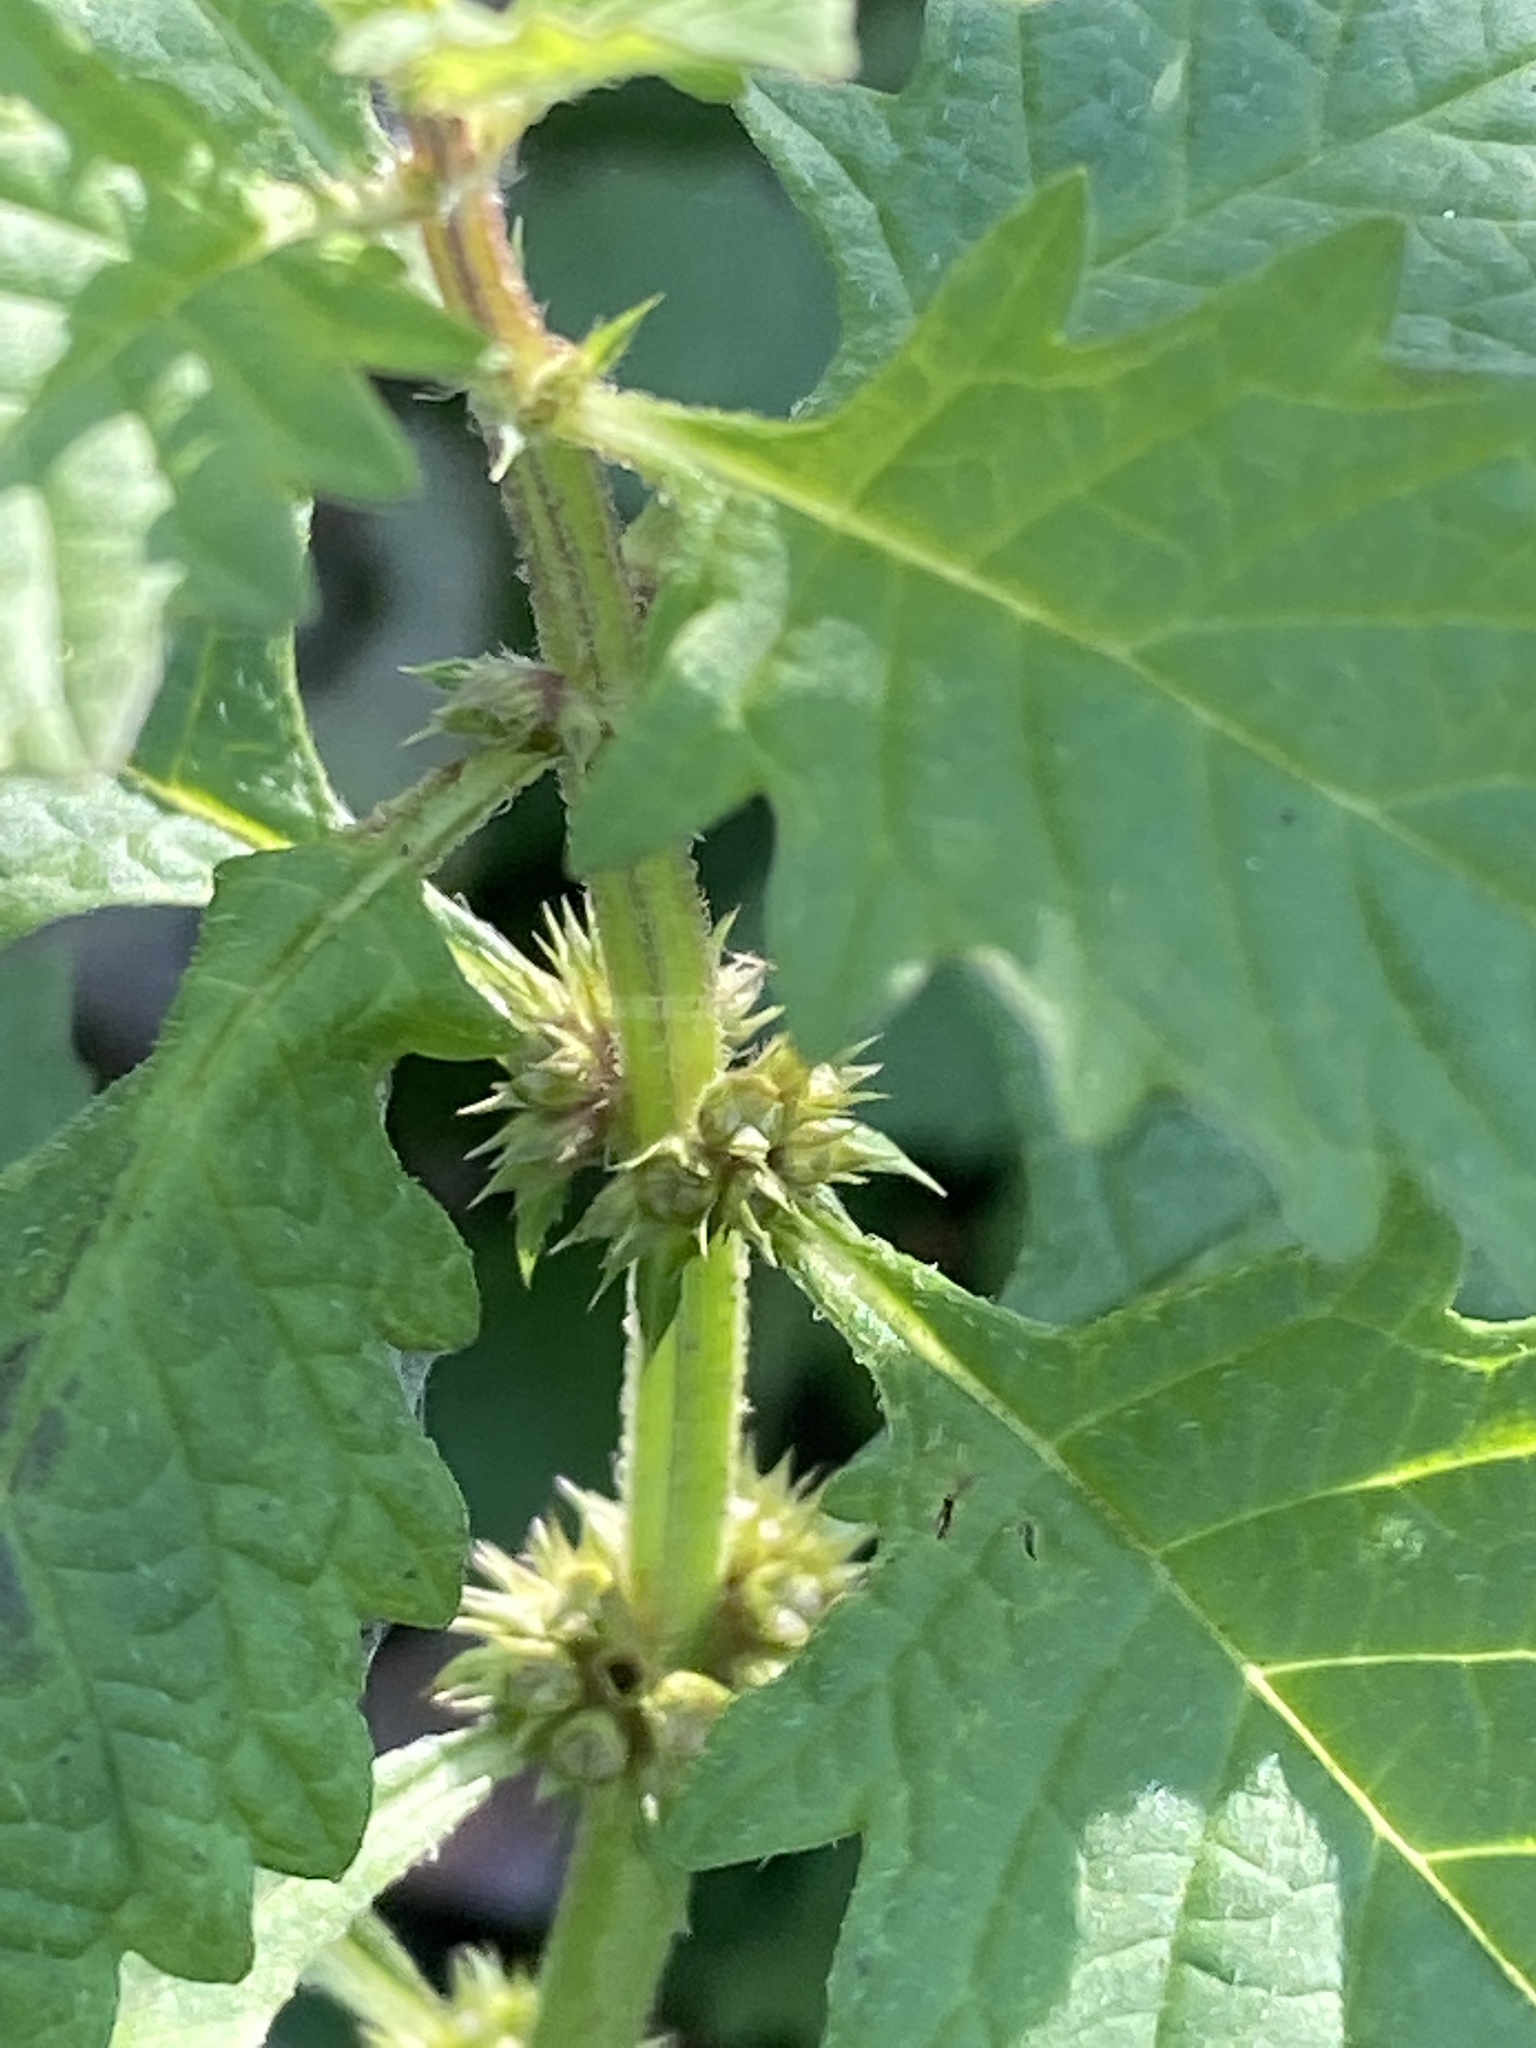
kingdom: Plantae
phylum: Tracheophyta
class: Magnoliopsida
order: Lamiales
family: Lamiaceae
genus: Lycopus
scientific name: Lycopus europaeus
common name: European bugleweed
